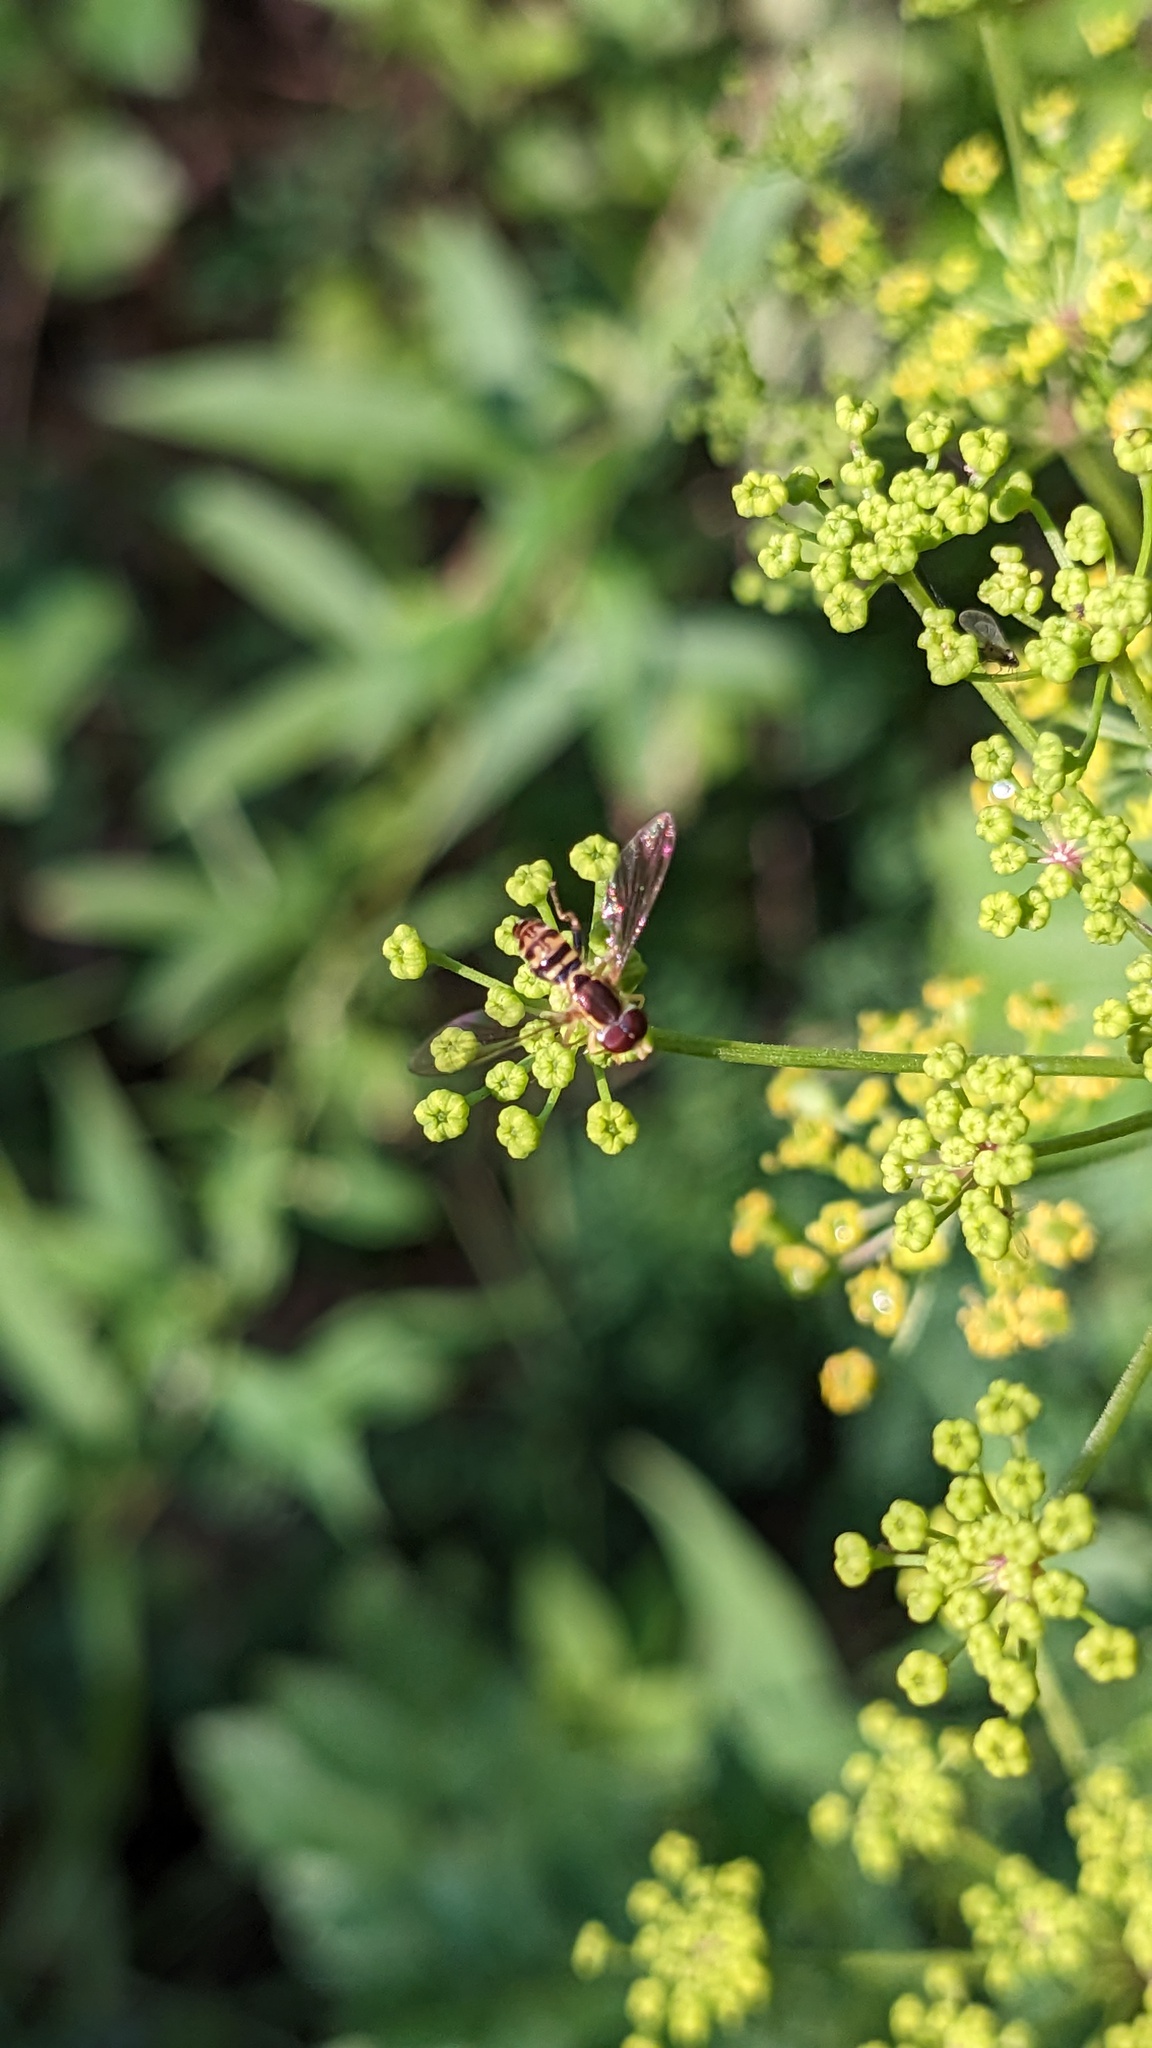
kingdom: Animalia
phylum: Arthropoda
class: Insecta
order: Diptera
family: Syrphidae
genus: Toxomerus
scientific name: Toxomerus geminatus
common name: Eastern calligrapher
